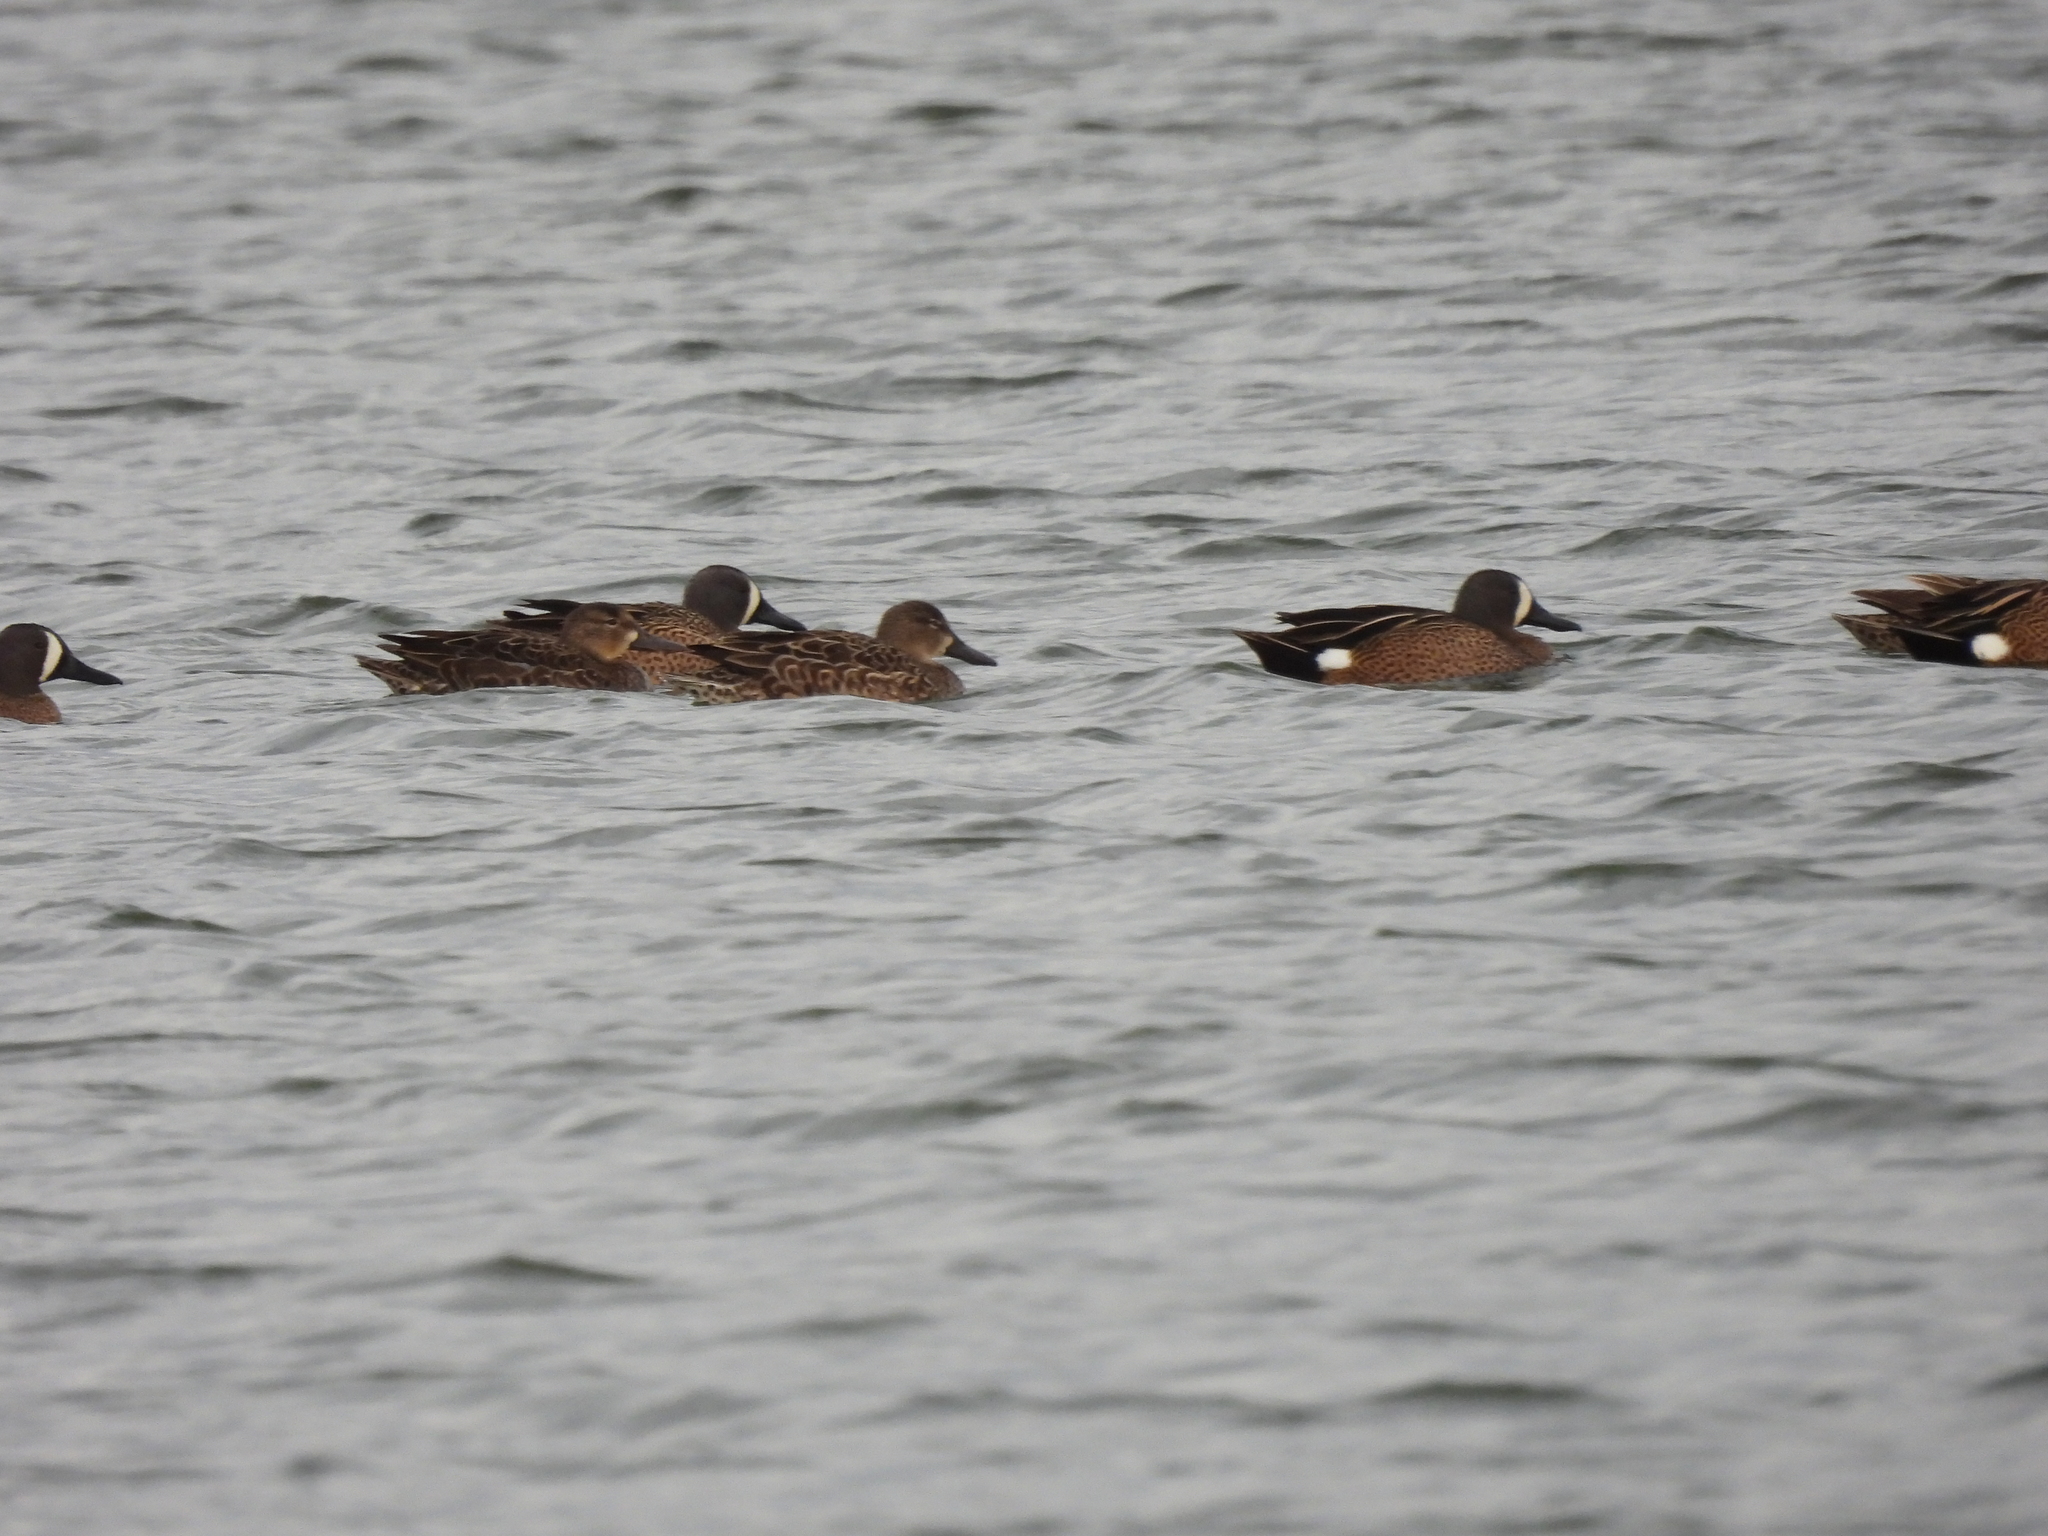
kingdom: Animalia
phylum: Chordata
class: Aves
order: Anseriformes
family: Anatidae
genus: Spatula
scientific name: Spatula discors
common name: Blue-winged teal
